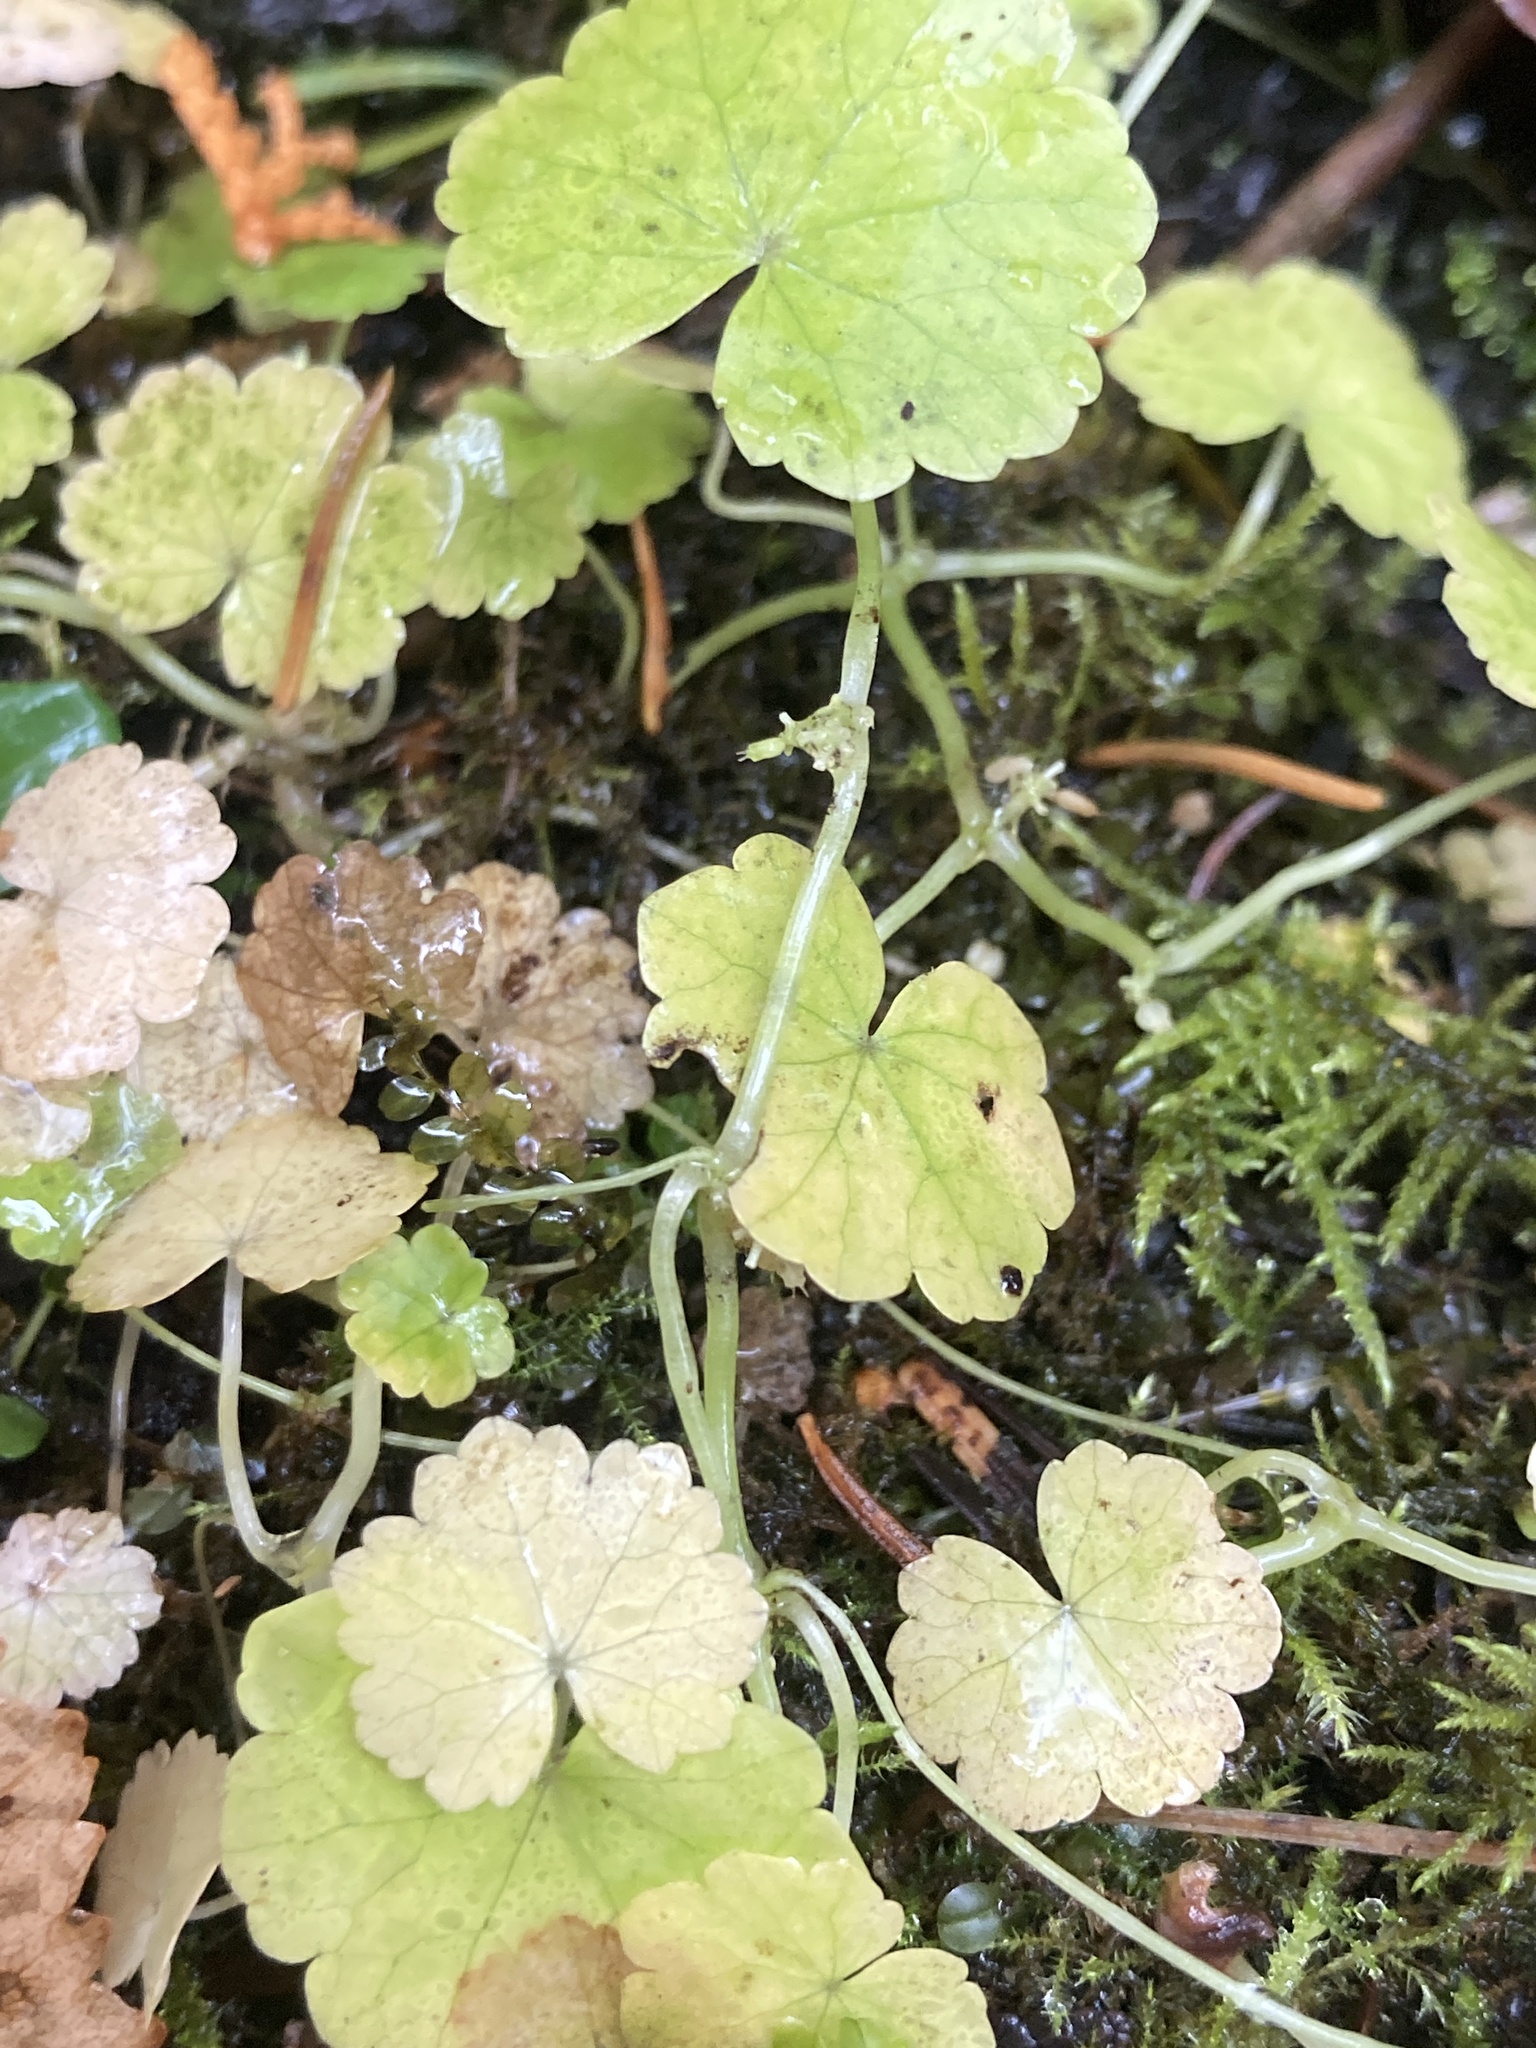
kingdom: Plantae
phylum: Tracheophyta
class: Magnoliopsida
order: Apiales
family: Araliaceae
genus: Hydrocotyle
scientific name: Hydrocotyle americana
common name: American water-pennywort
